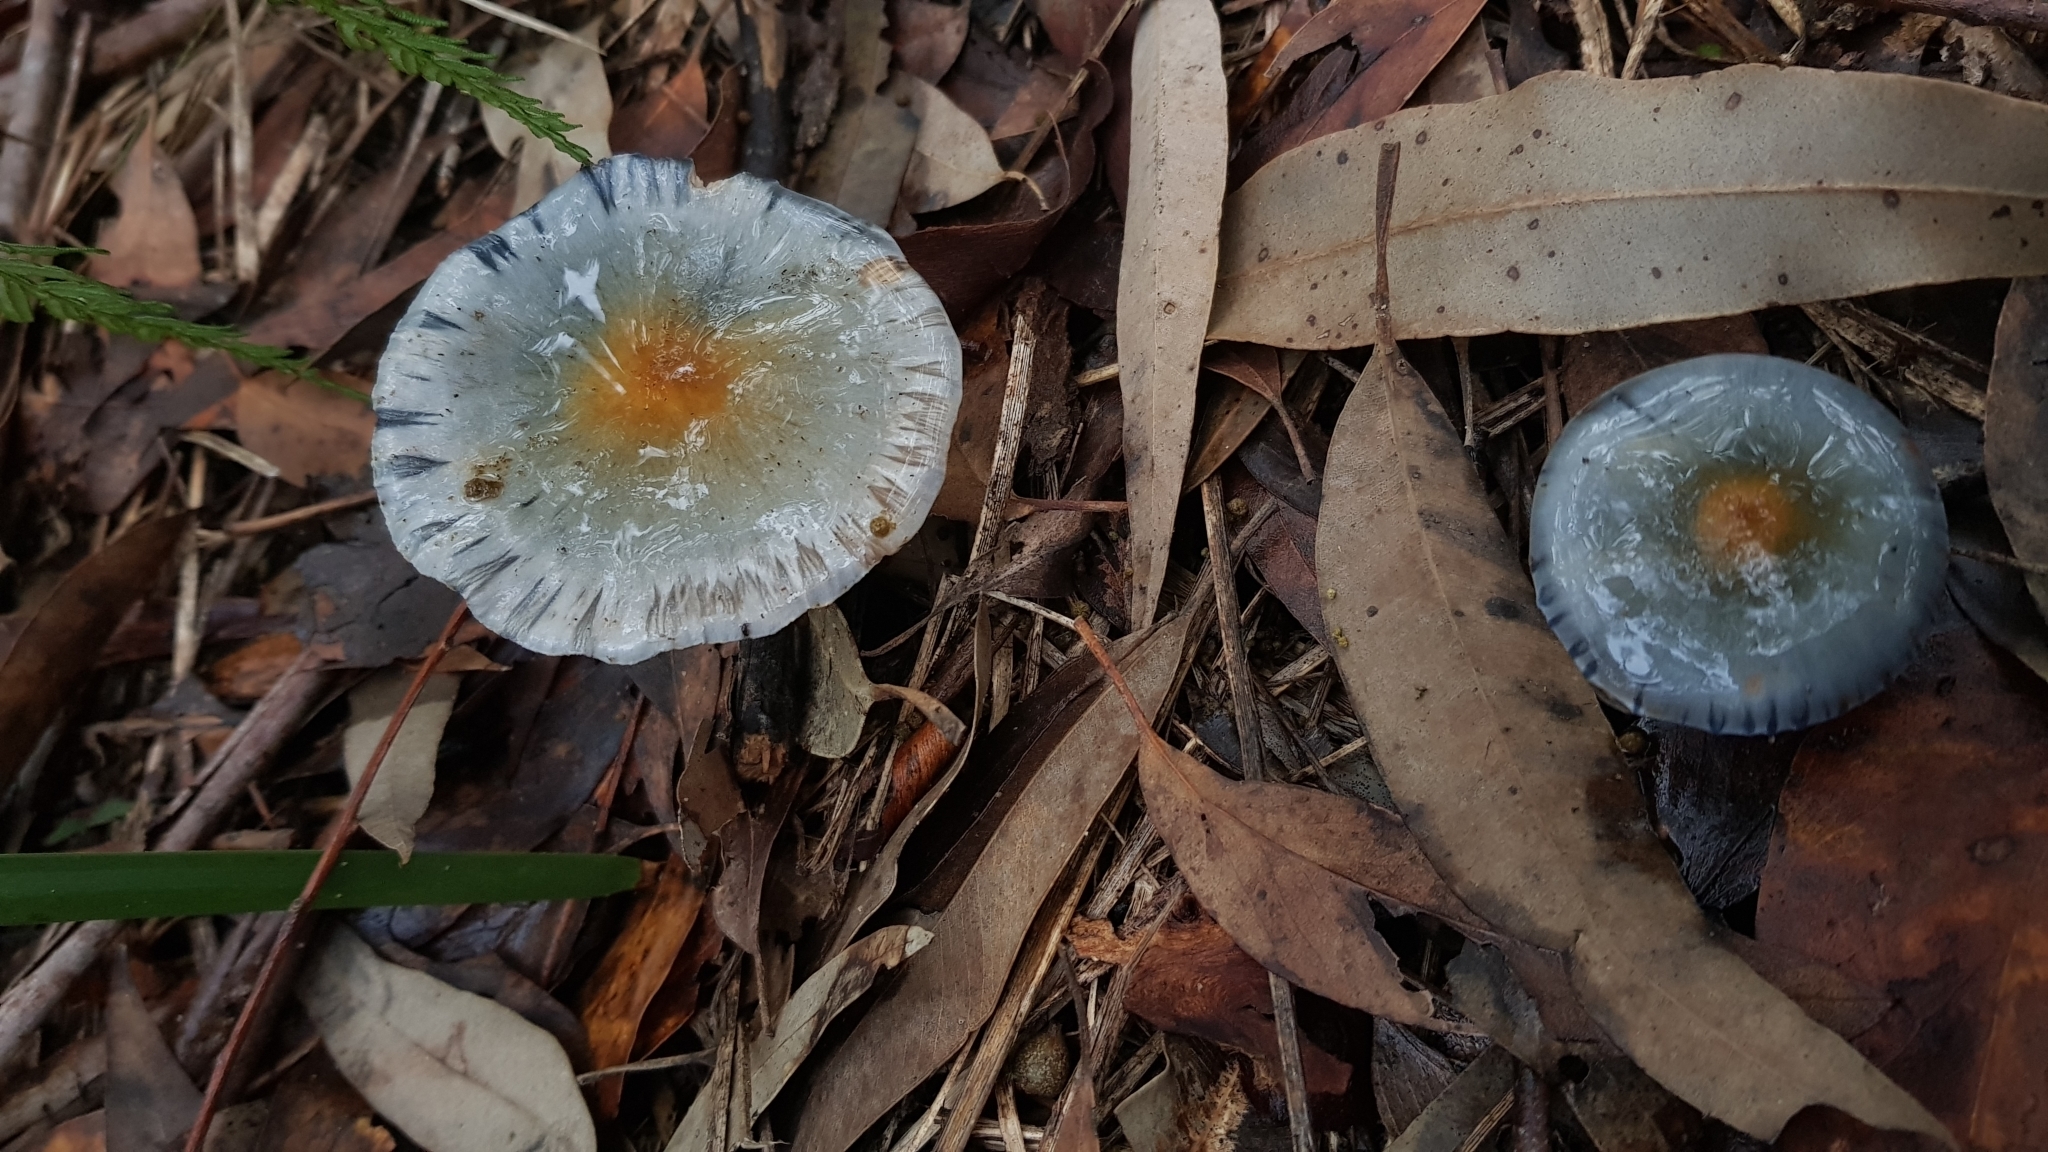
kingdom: Fungi
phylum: Basidiomycota
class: Agaricomycetes
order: Agaricales
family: Cortinariaceae
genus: Cortinarius
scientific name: Cortinarius rotundisporus
